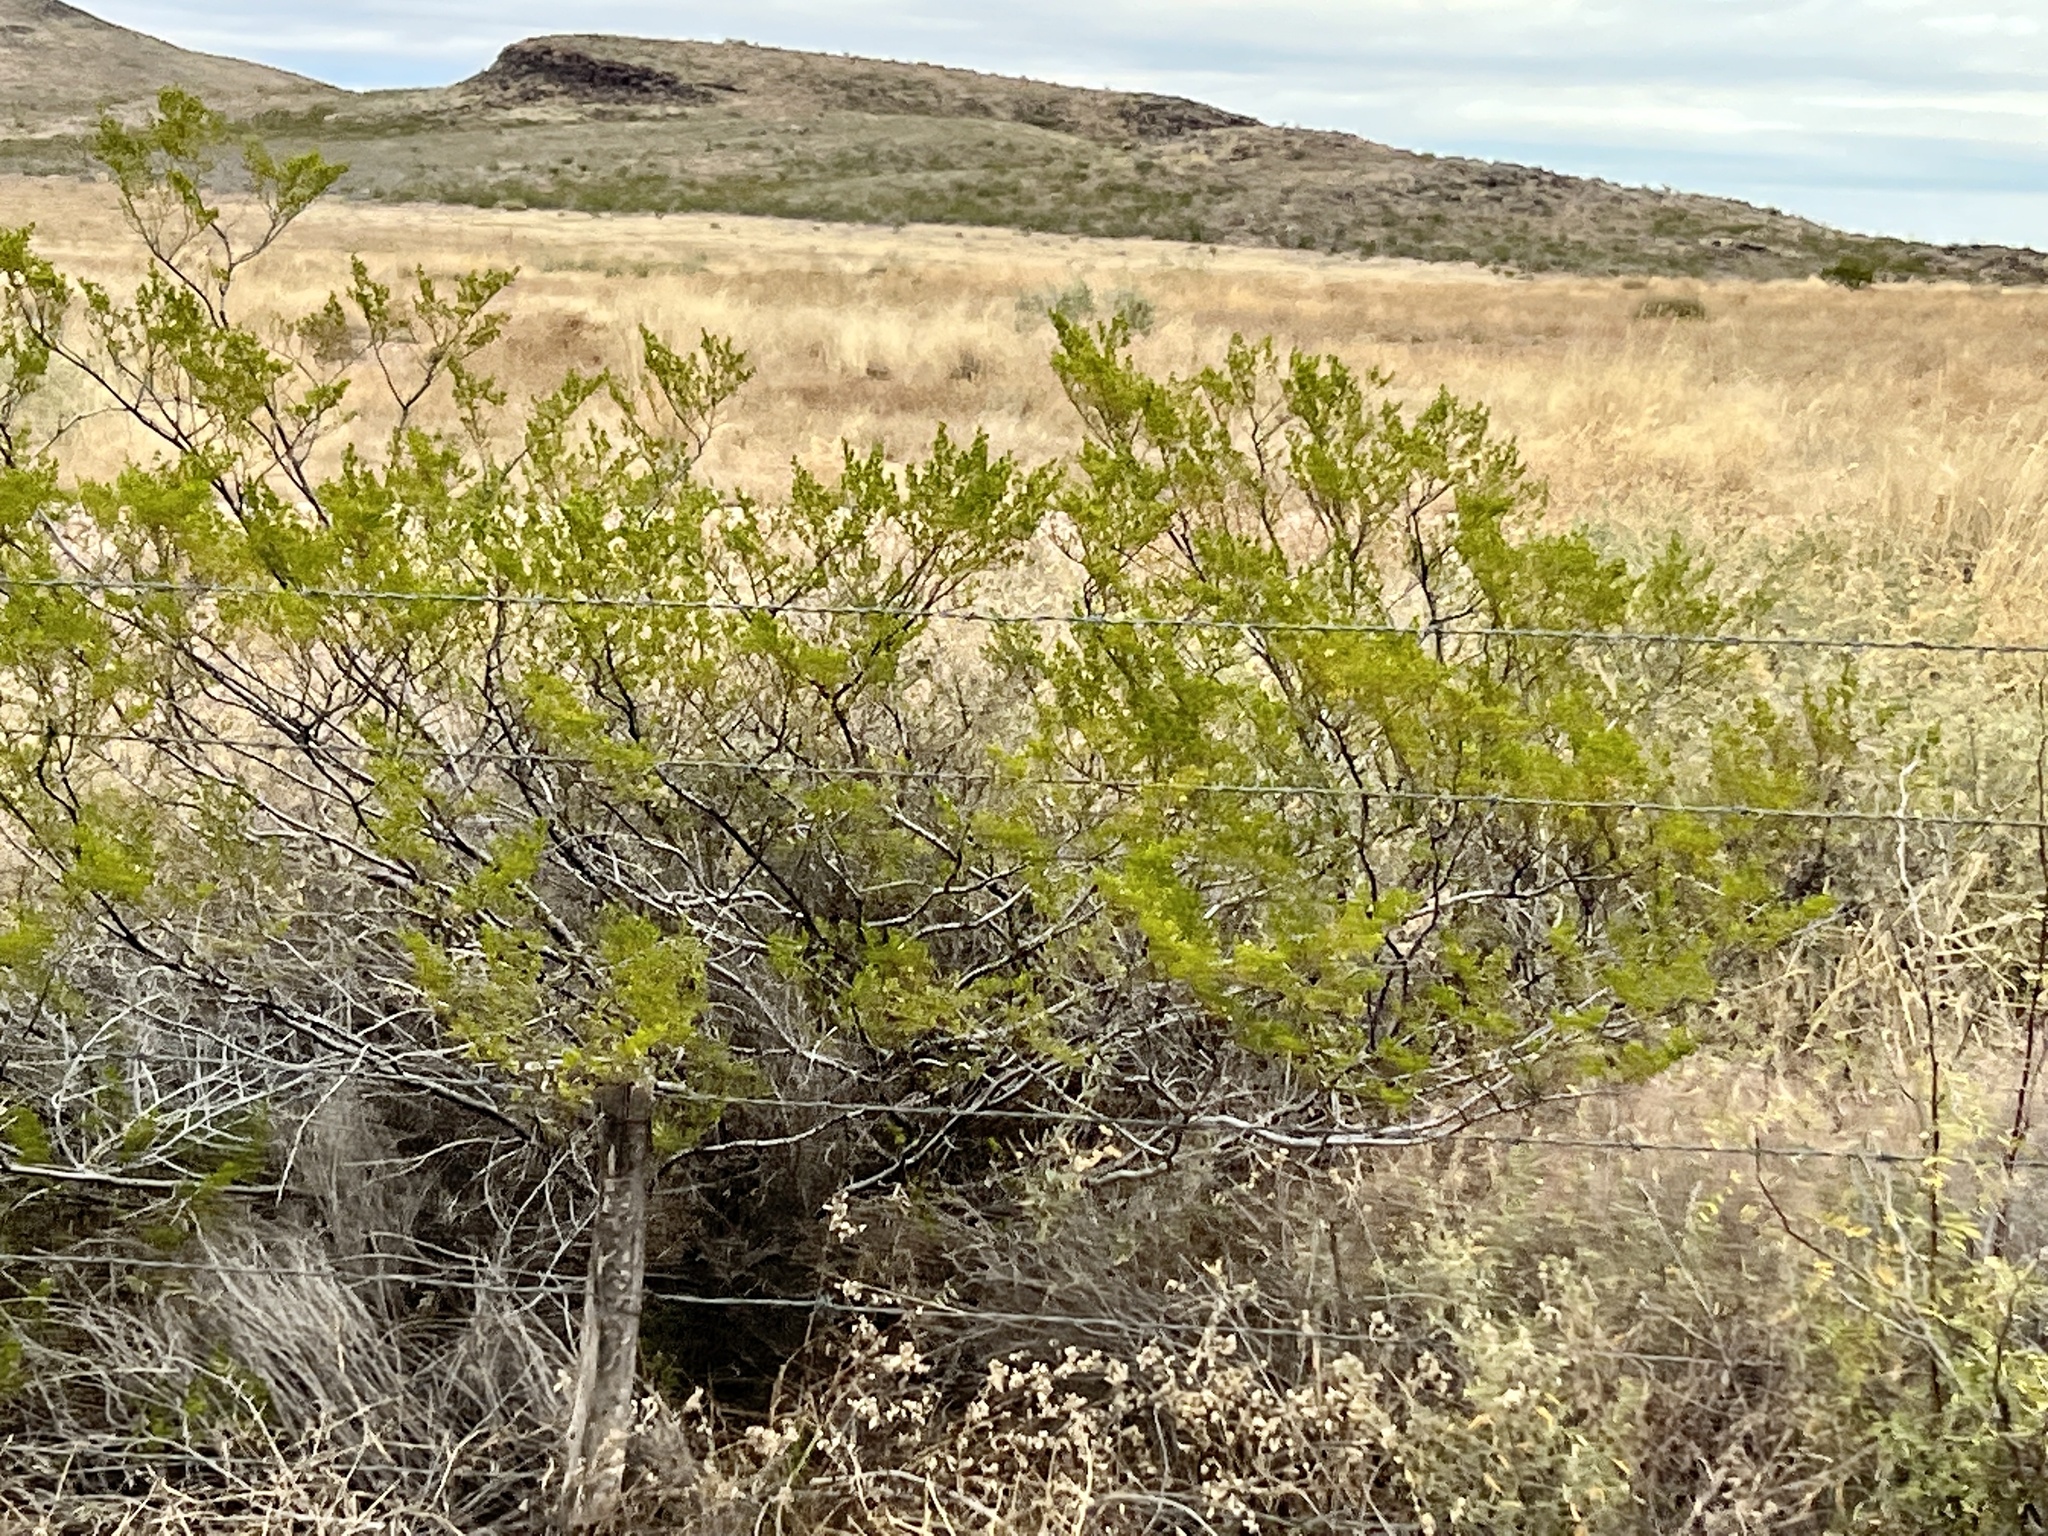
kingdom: Plantae
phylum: Tracheophyta
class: Magnoliopsida
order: Zygophyllales
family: Zygophyllaceae
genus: Larrea
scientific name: Larrea tridentata
